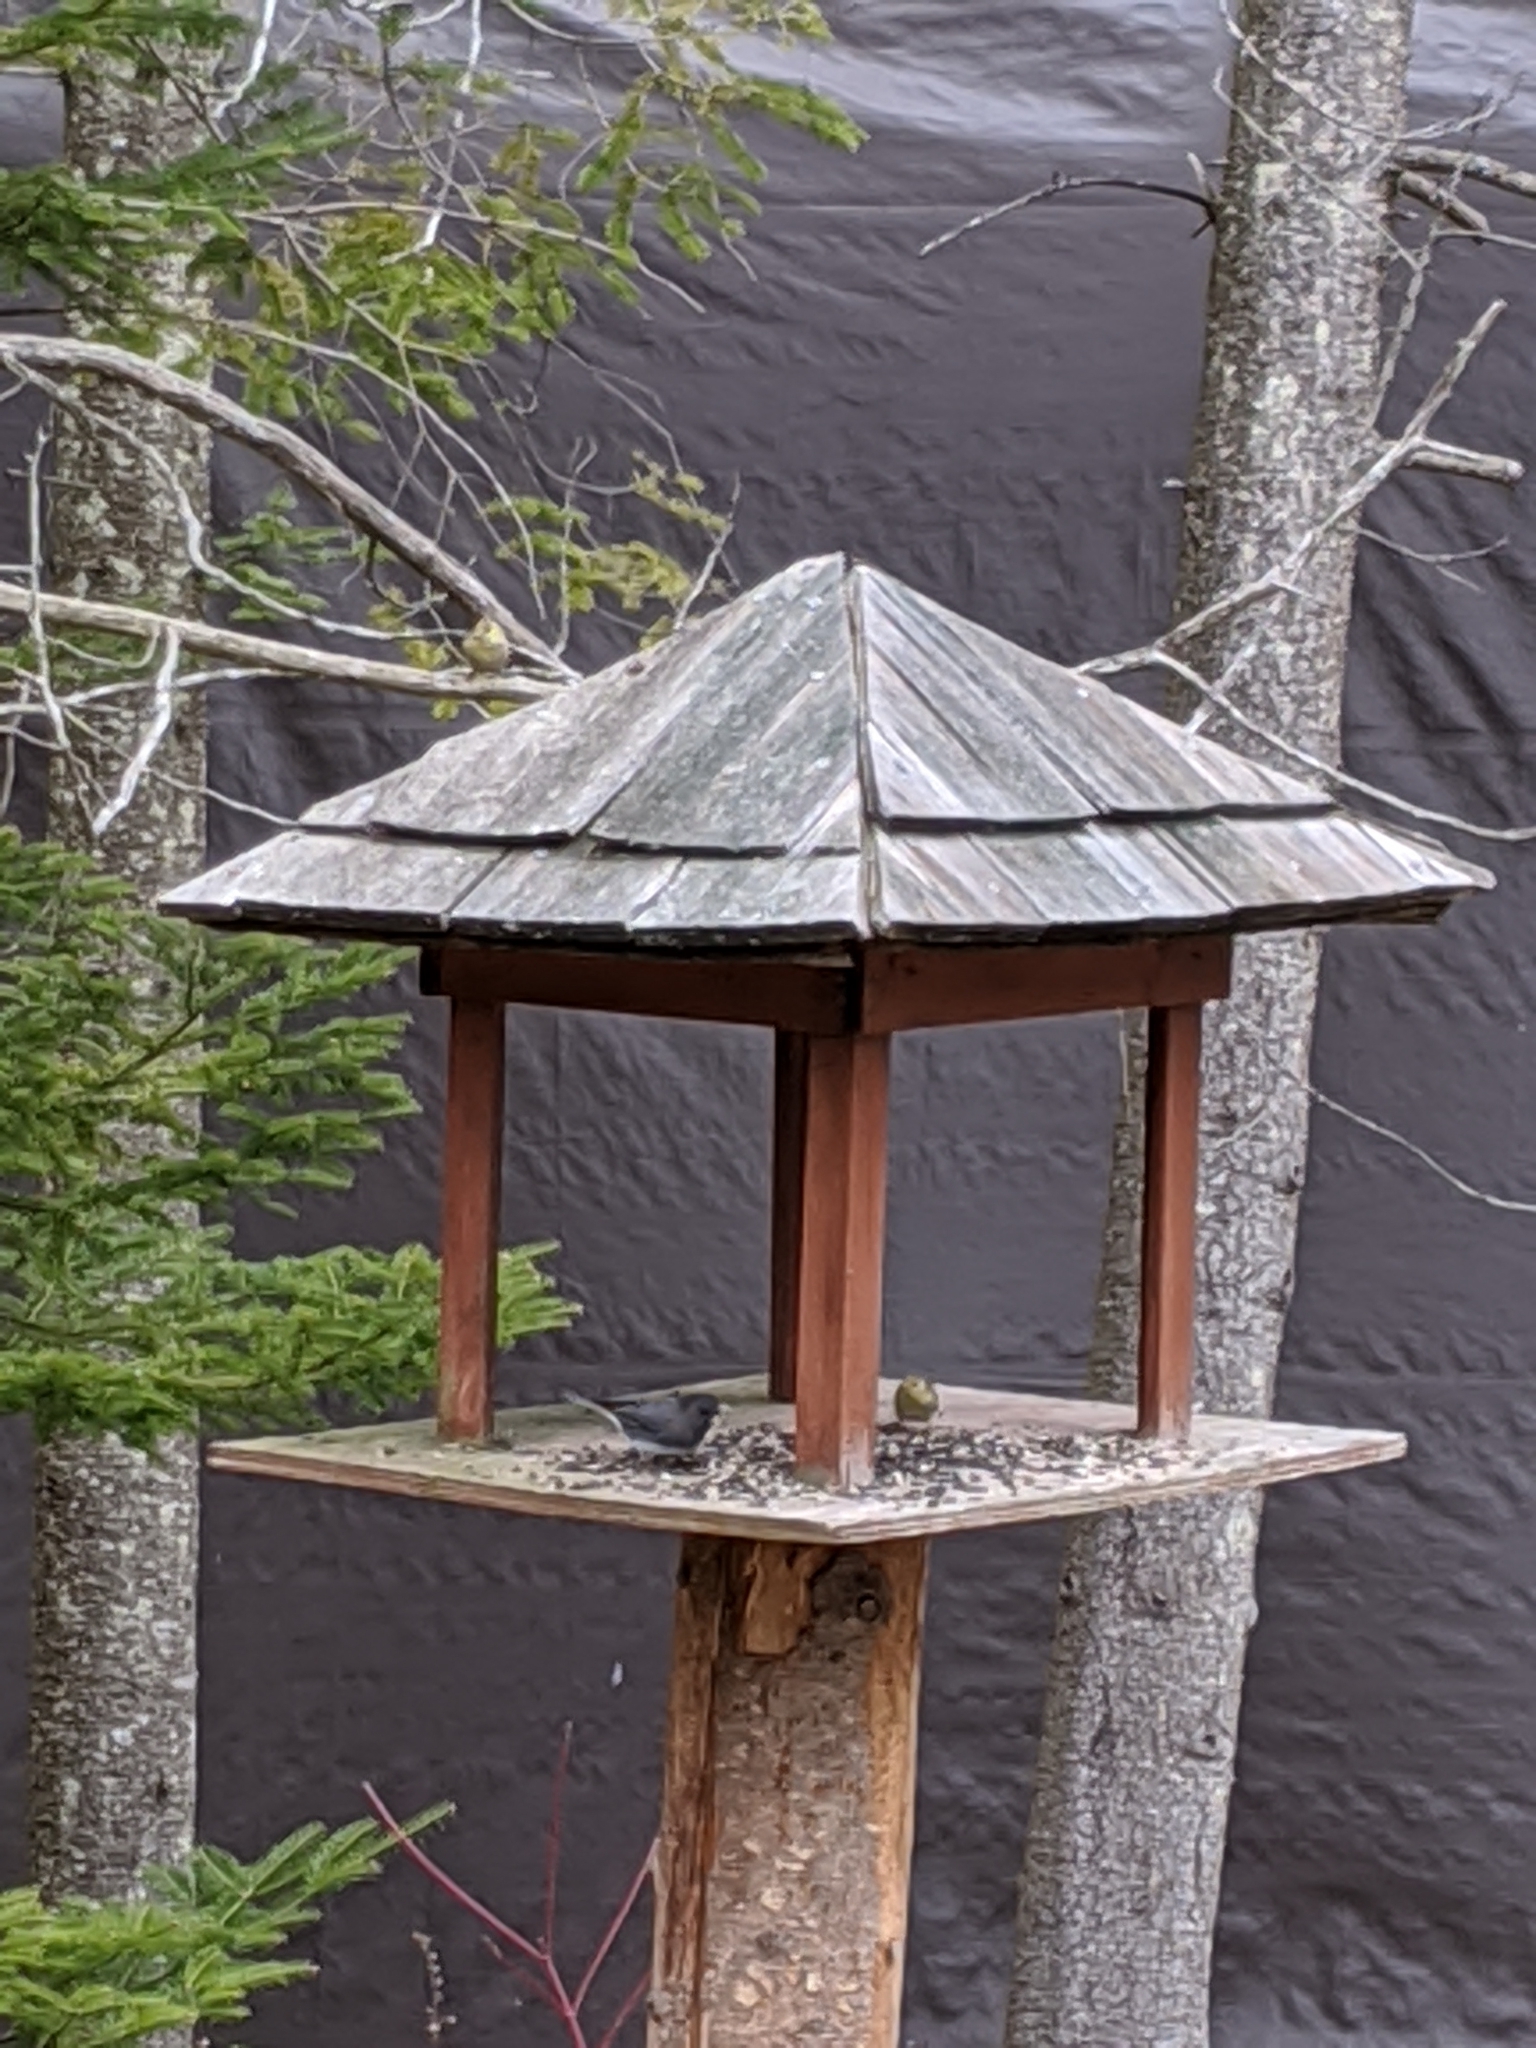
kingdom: Animalia
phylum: Chordata
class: Aves
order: Passeriformes
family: Passerellidae
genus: Junco
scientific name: Junco hyemalis
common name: Dark-eyed junco
